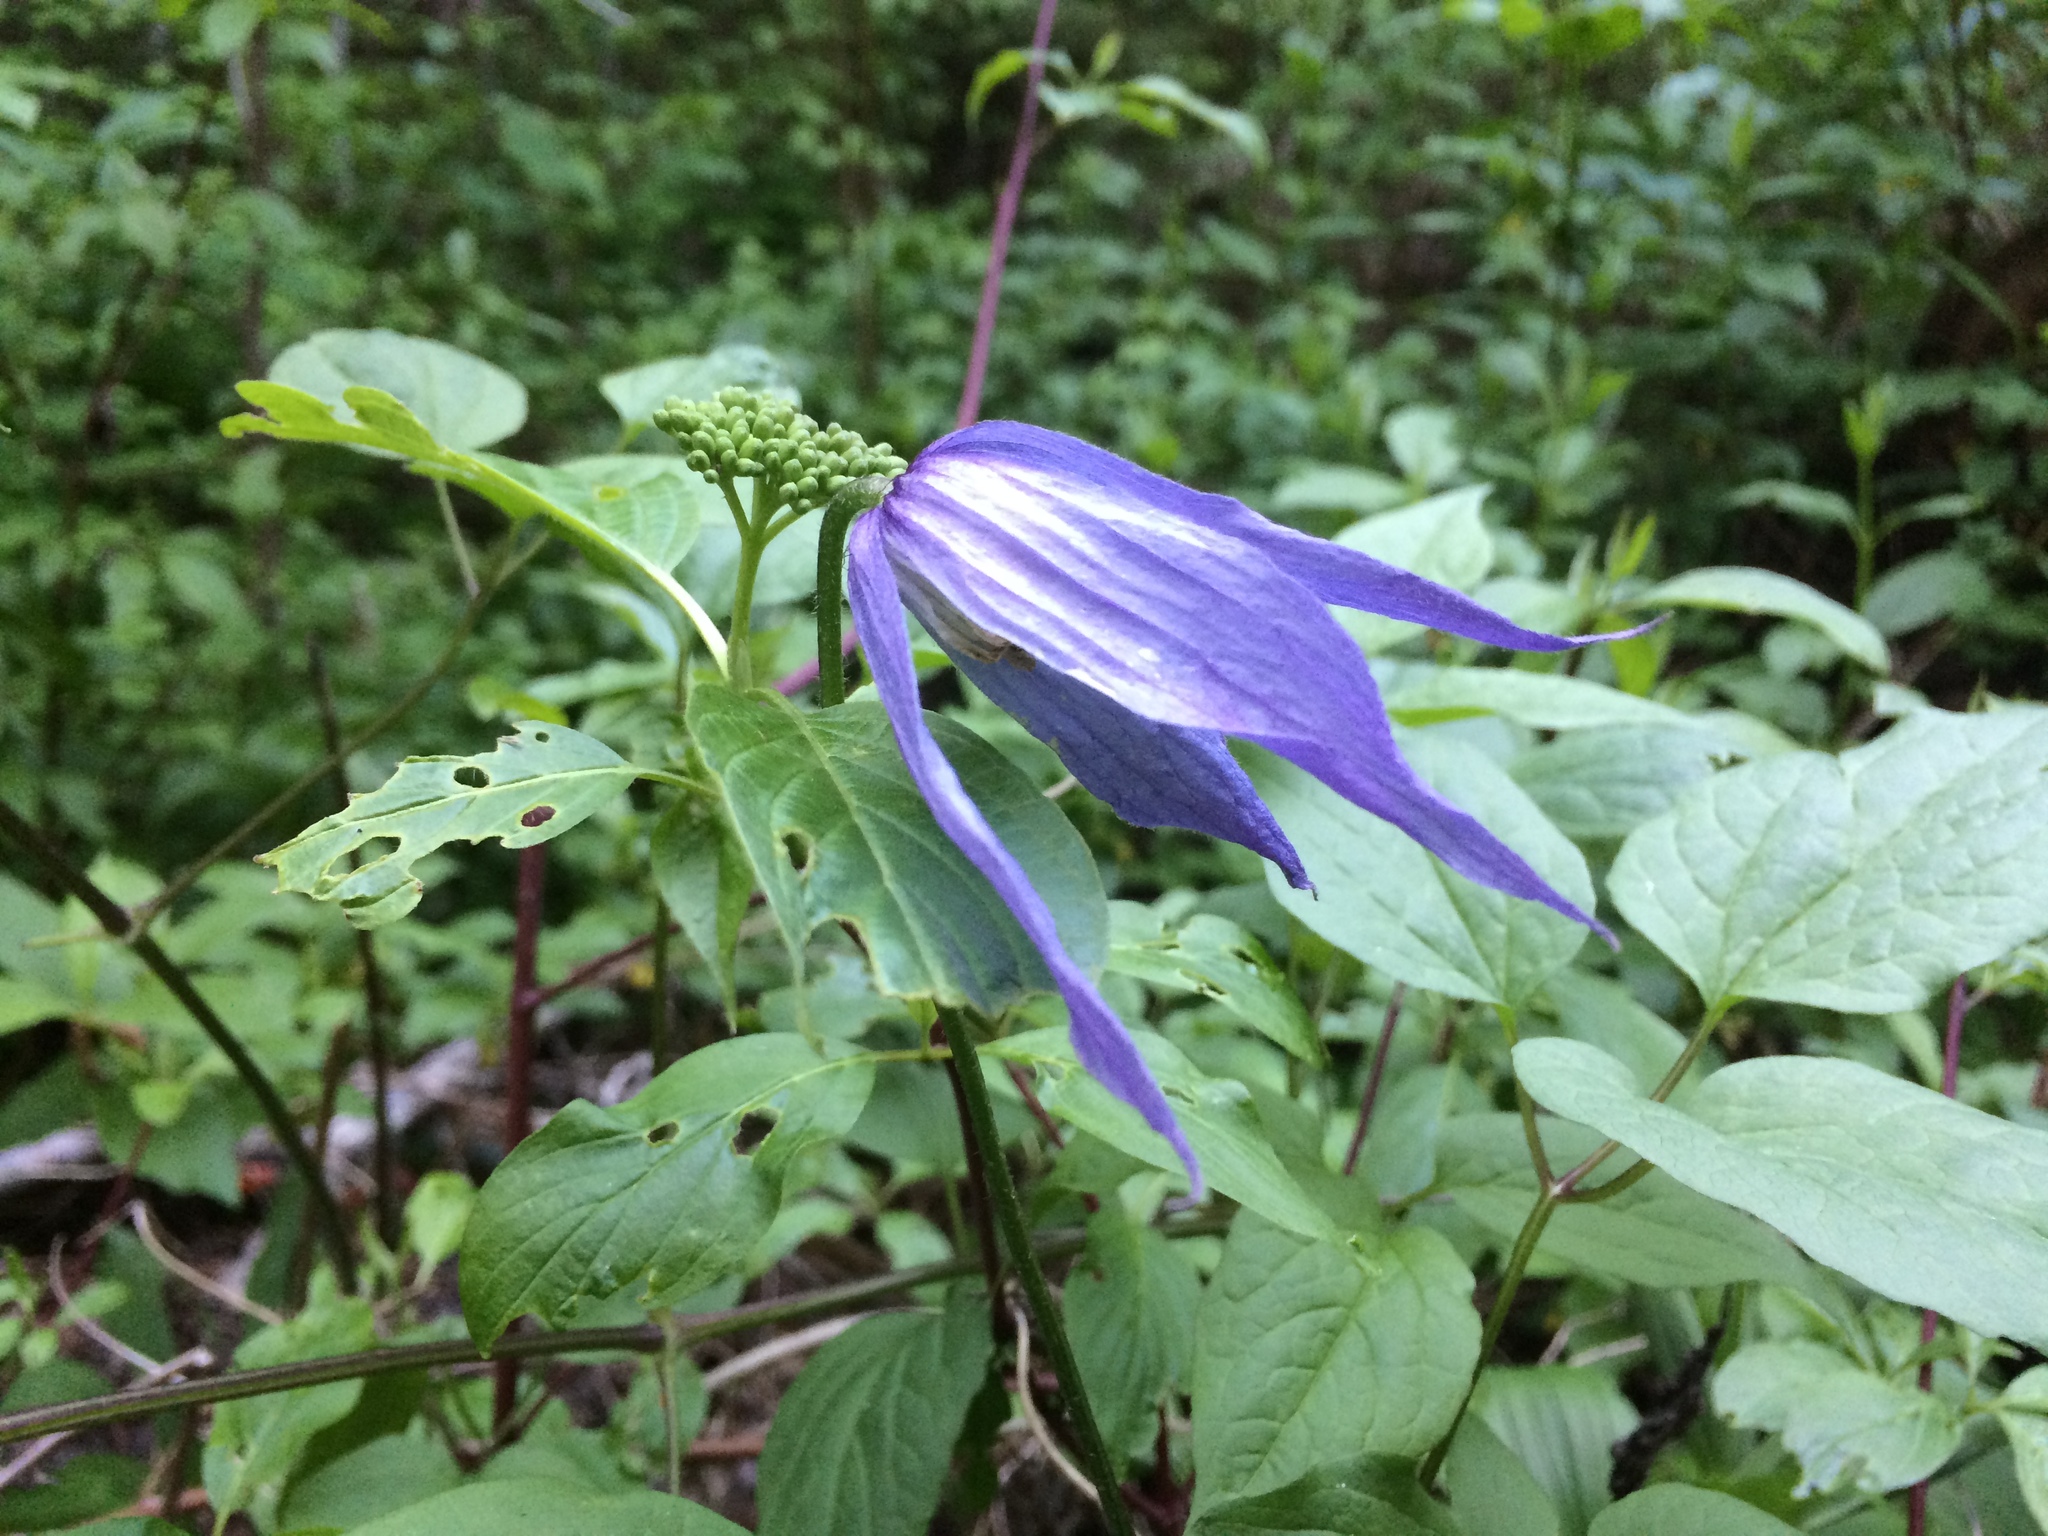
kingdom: Plantae
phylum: Tracheophyta
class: Magnoliopsida
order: Ranunculales
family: Ranunculaceae
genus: Clematis
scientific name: Clematis occidentalis
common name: Purple clematis
